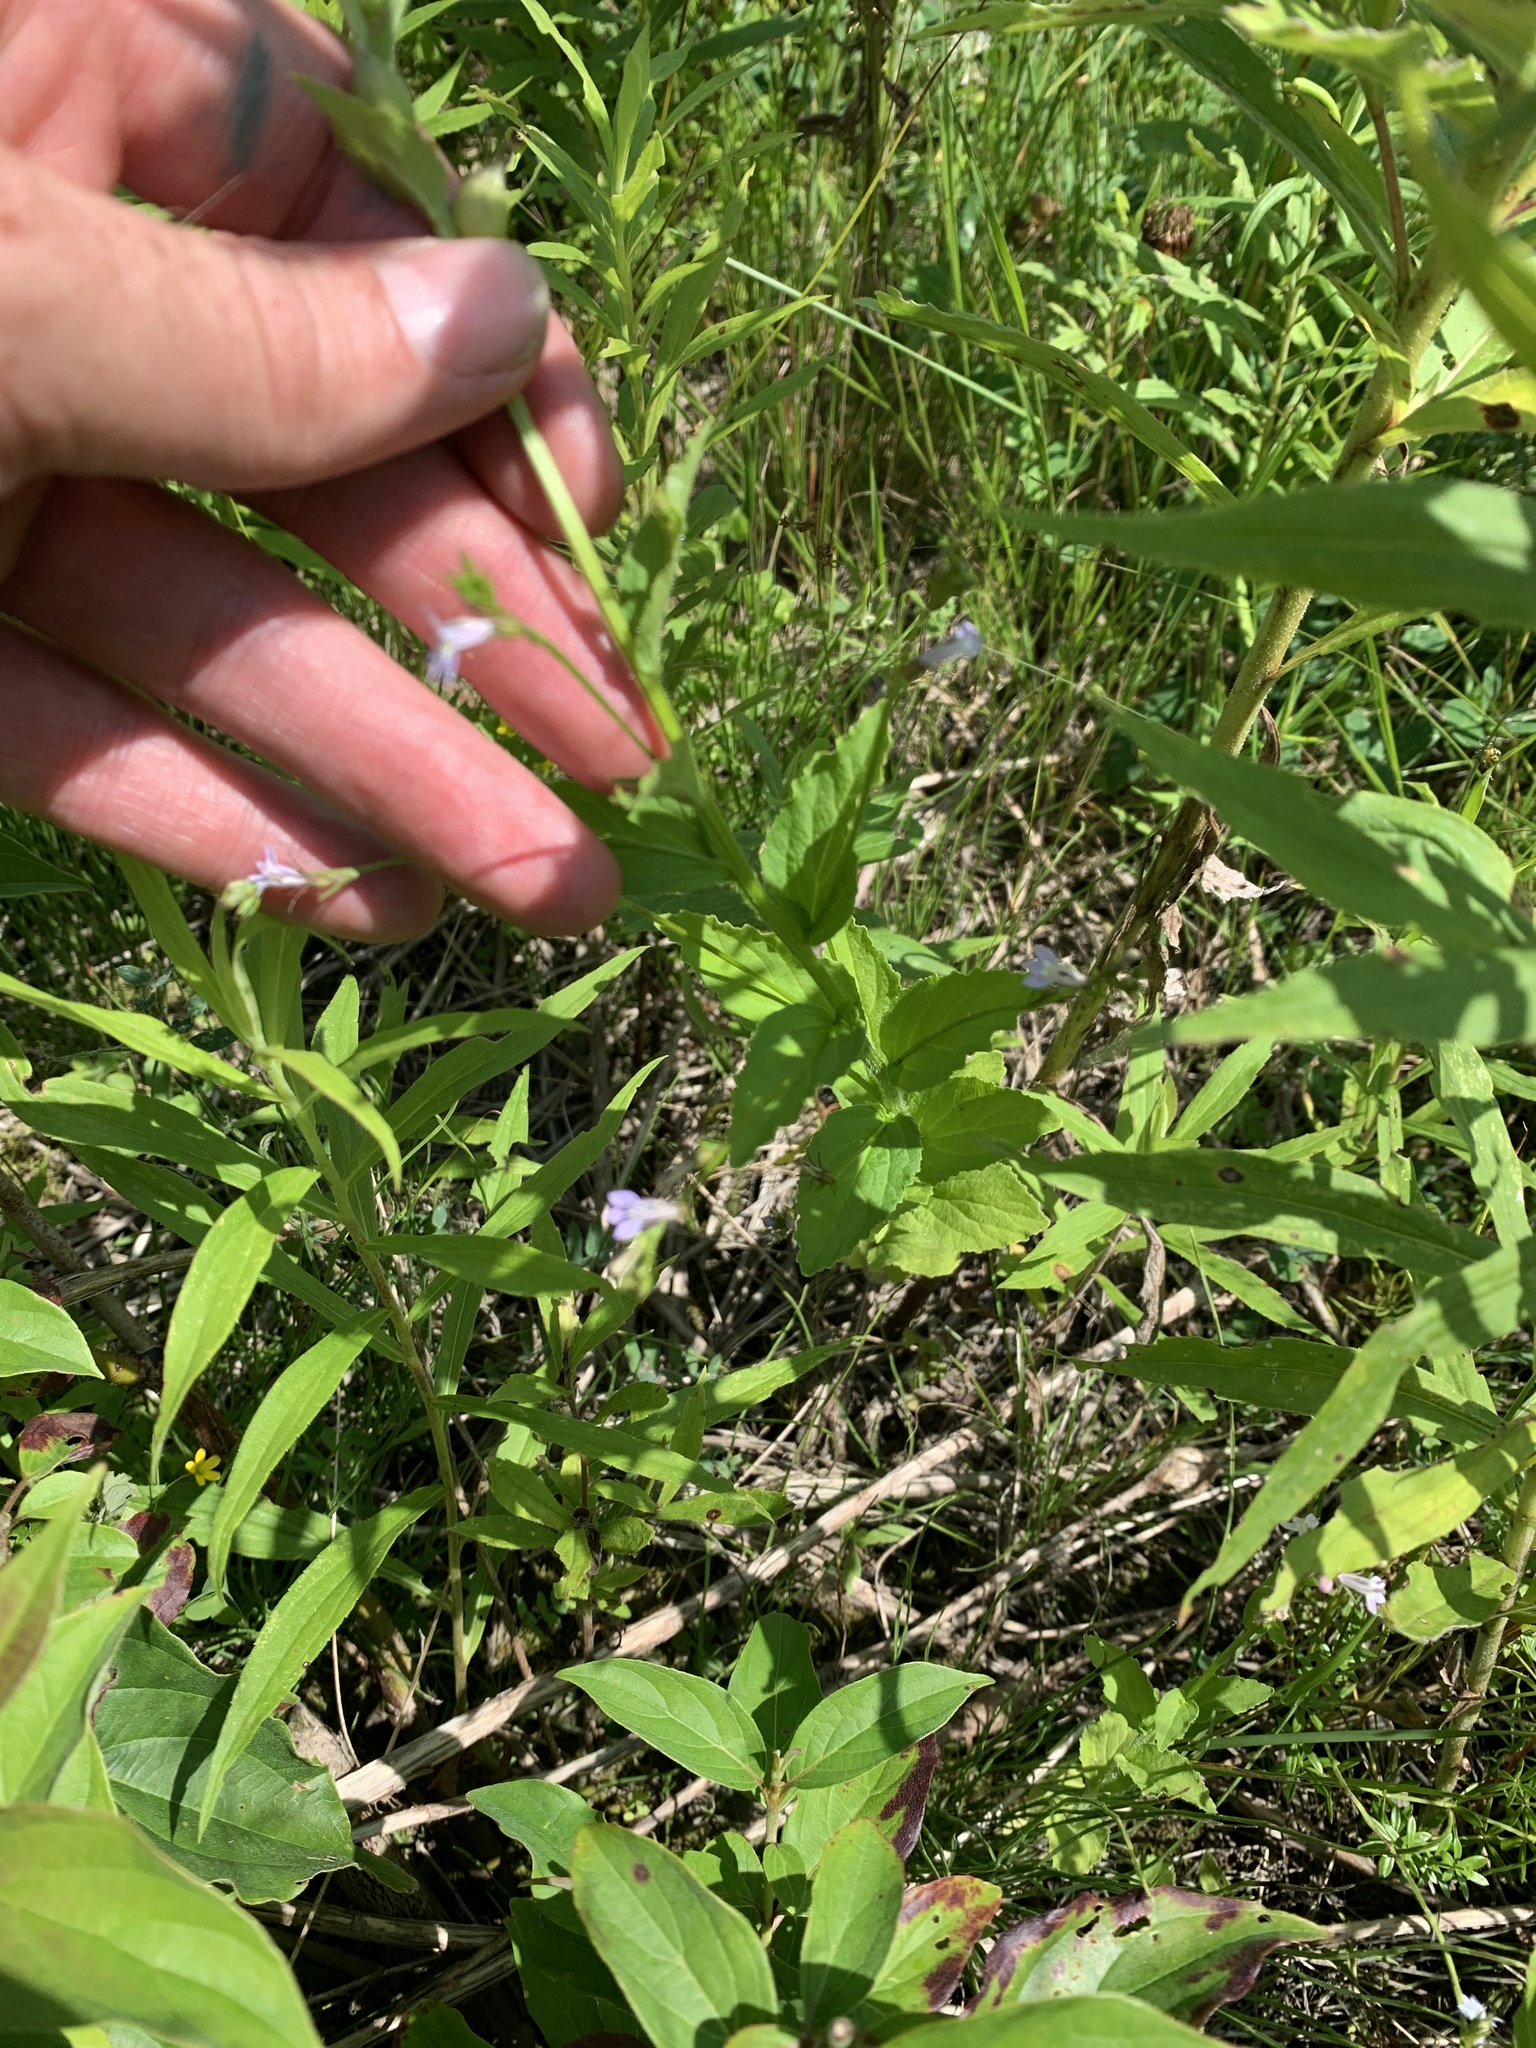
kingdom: Plantae
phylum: Tracheophyta
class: Magnoliopsida
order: Asterales
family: Campanulaceae
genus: Lobelia
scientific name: Lobelia inflata
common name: Indian tobacco
